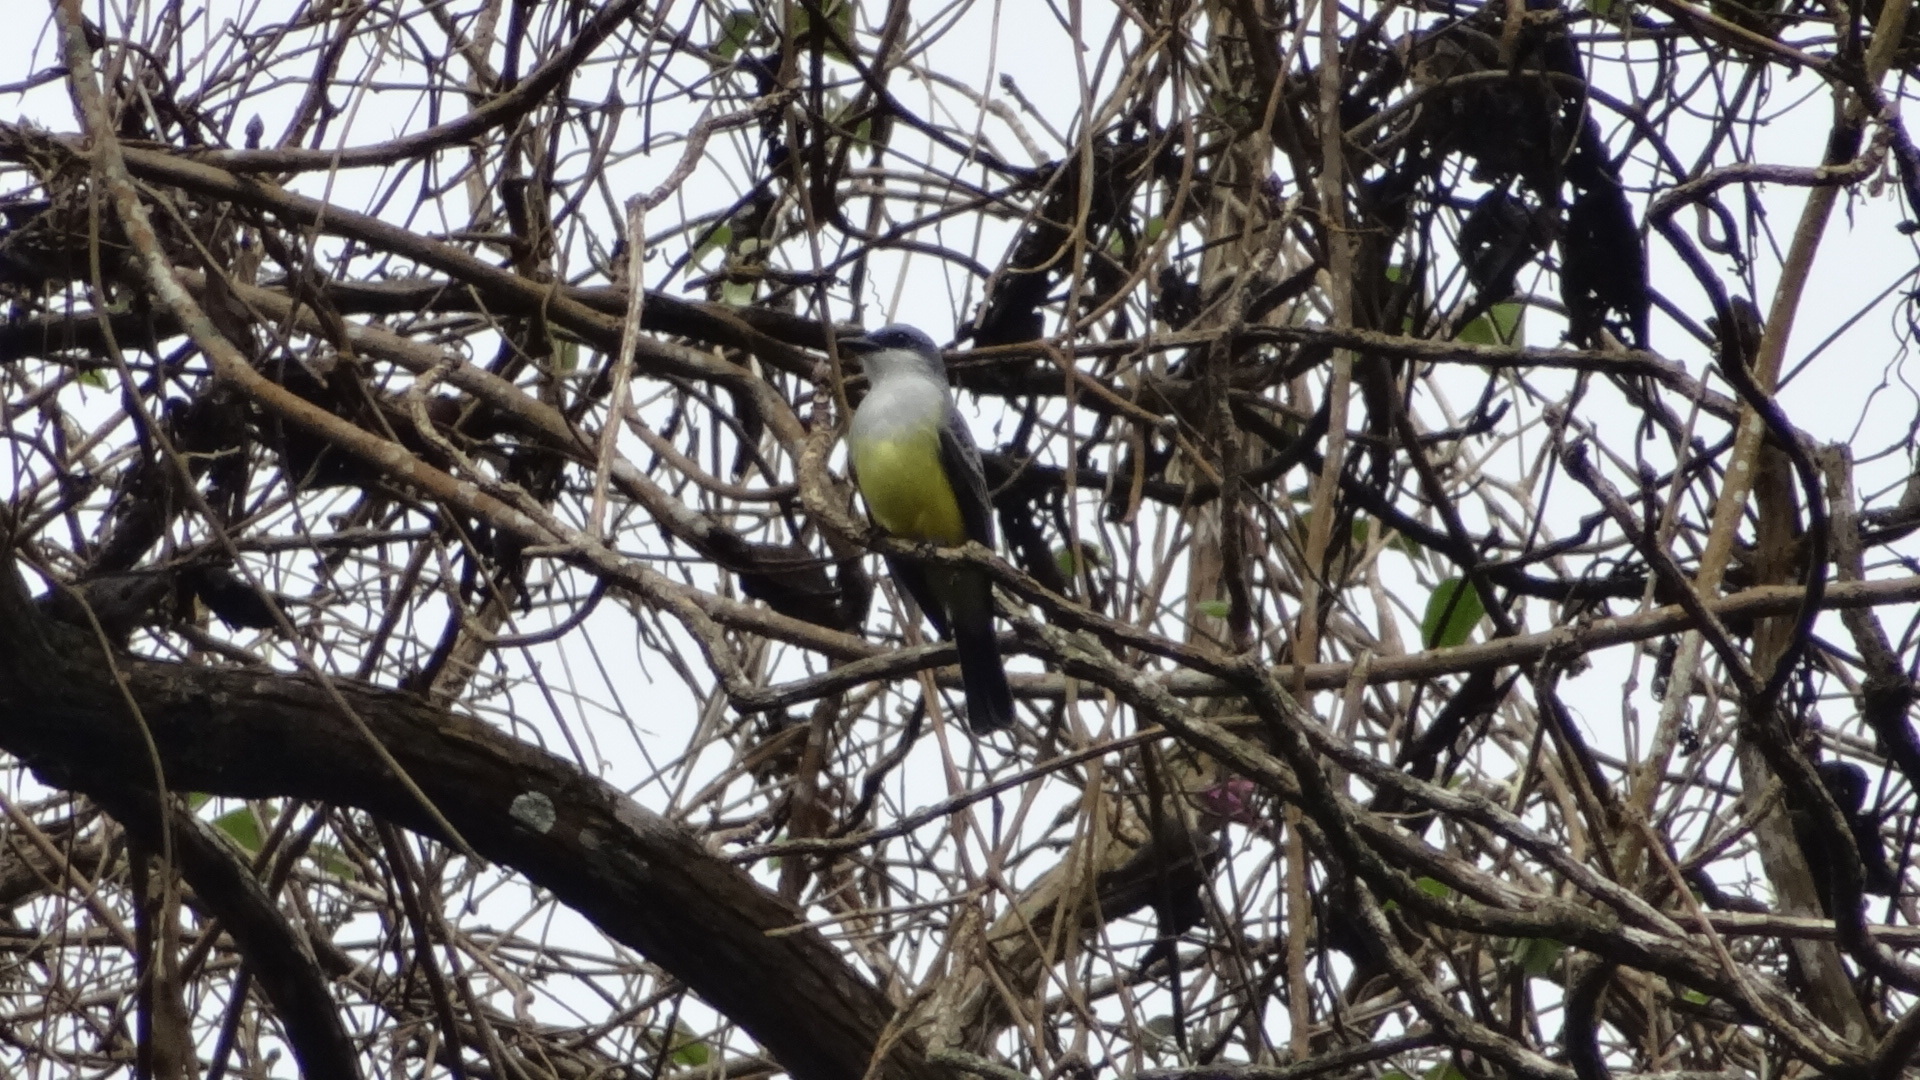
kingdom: Animalia
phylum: Chordata
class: Aves
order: Passeriformes
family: Tyrannidae
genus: Tyrannus
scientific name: Tyrannus niveigularis
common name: Snowy-throated kingbird
